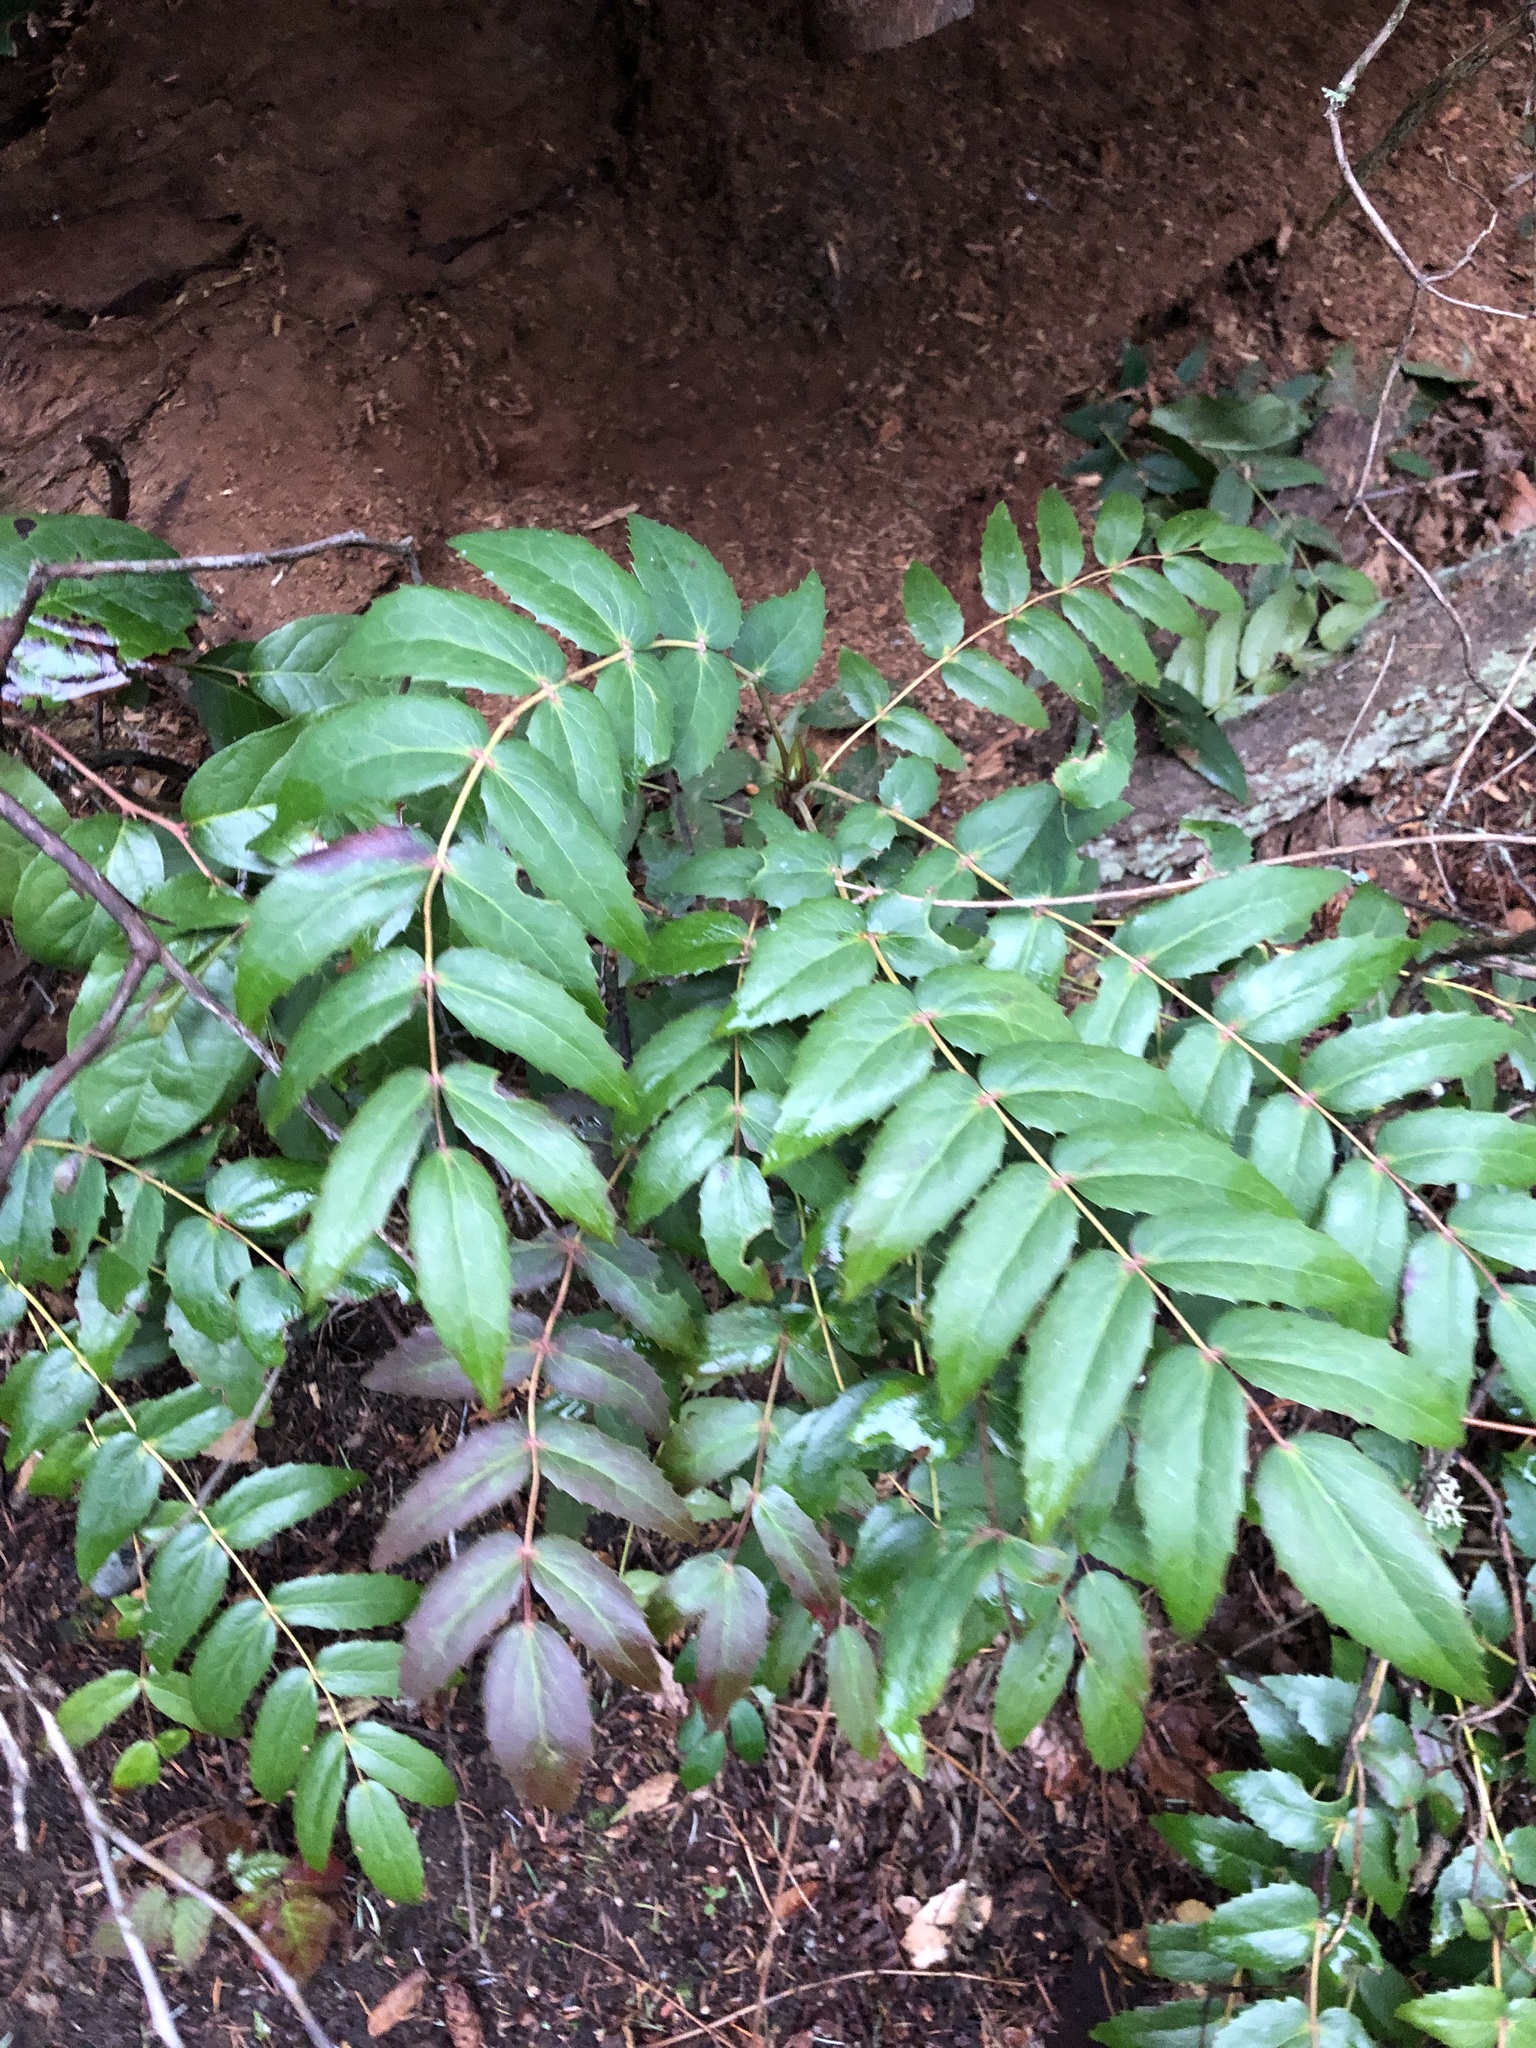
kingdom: Plantae
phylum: Tracheophyta
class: Magnoliopsida
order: Ranunculales
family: Berberidaceae
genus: Mahonia
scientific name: Mahonia nervosa
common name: Cascade oregon-grape
